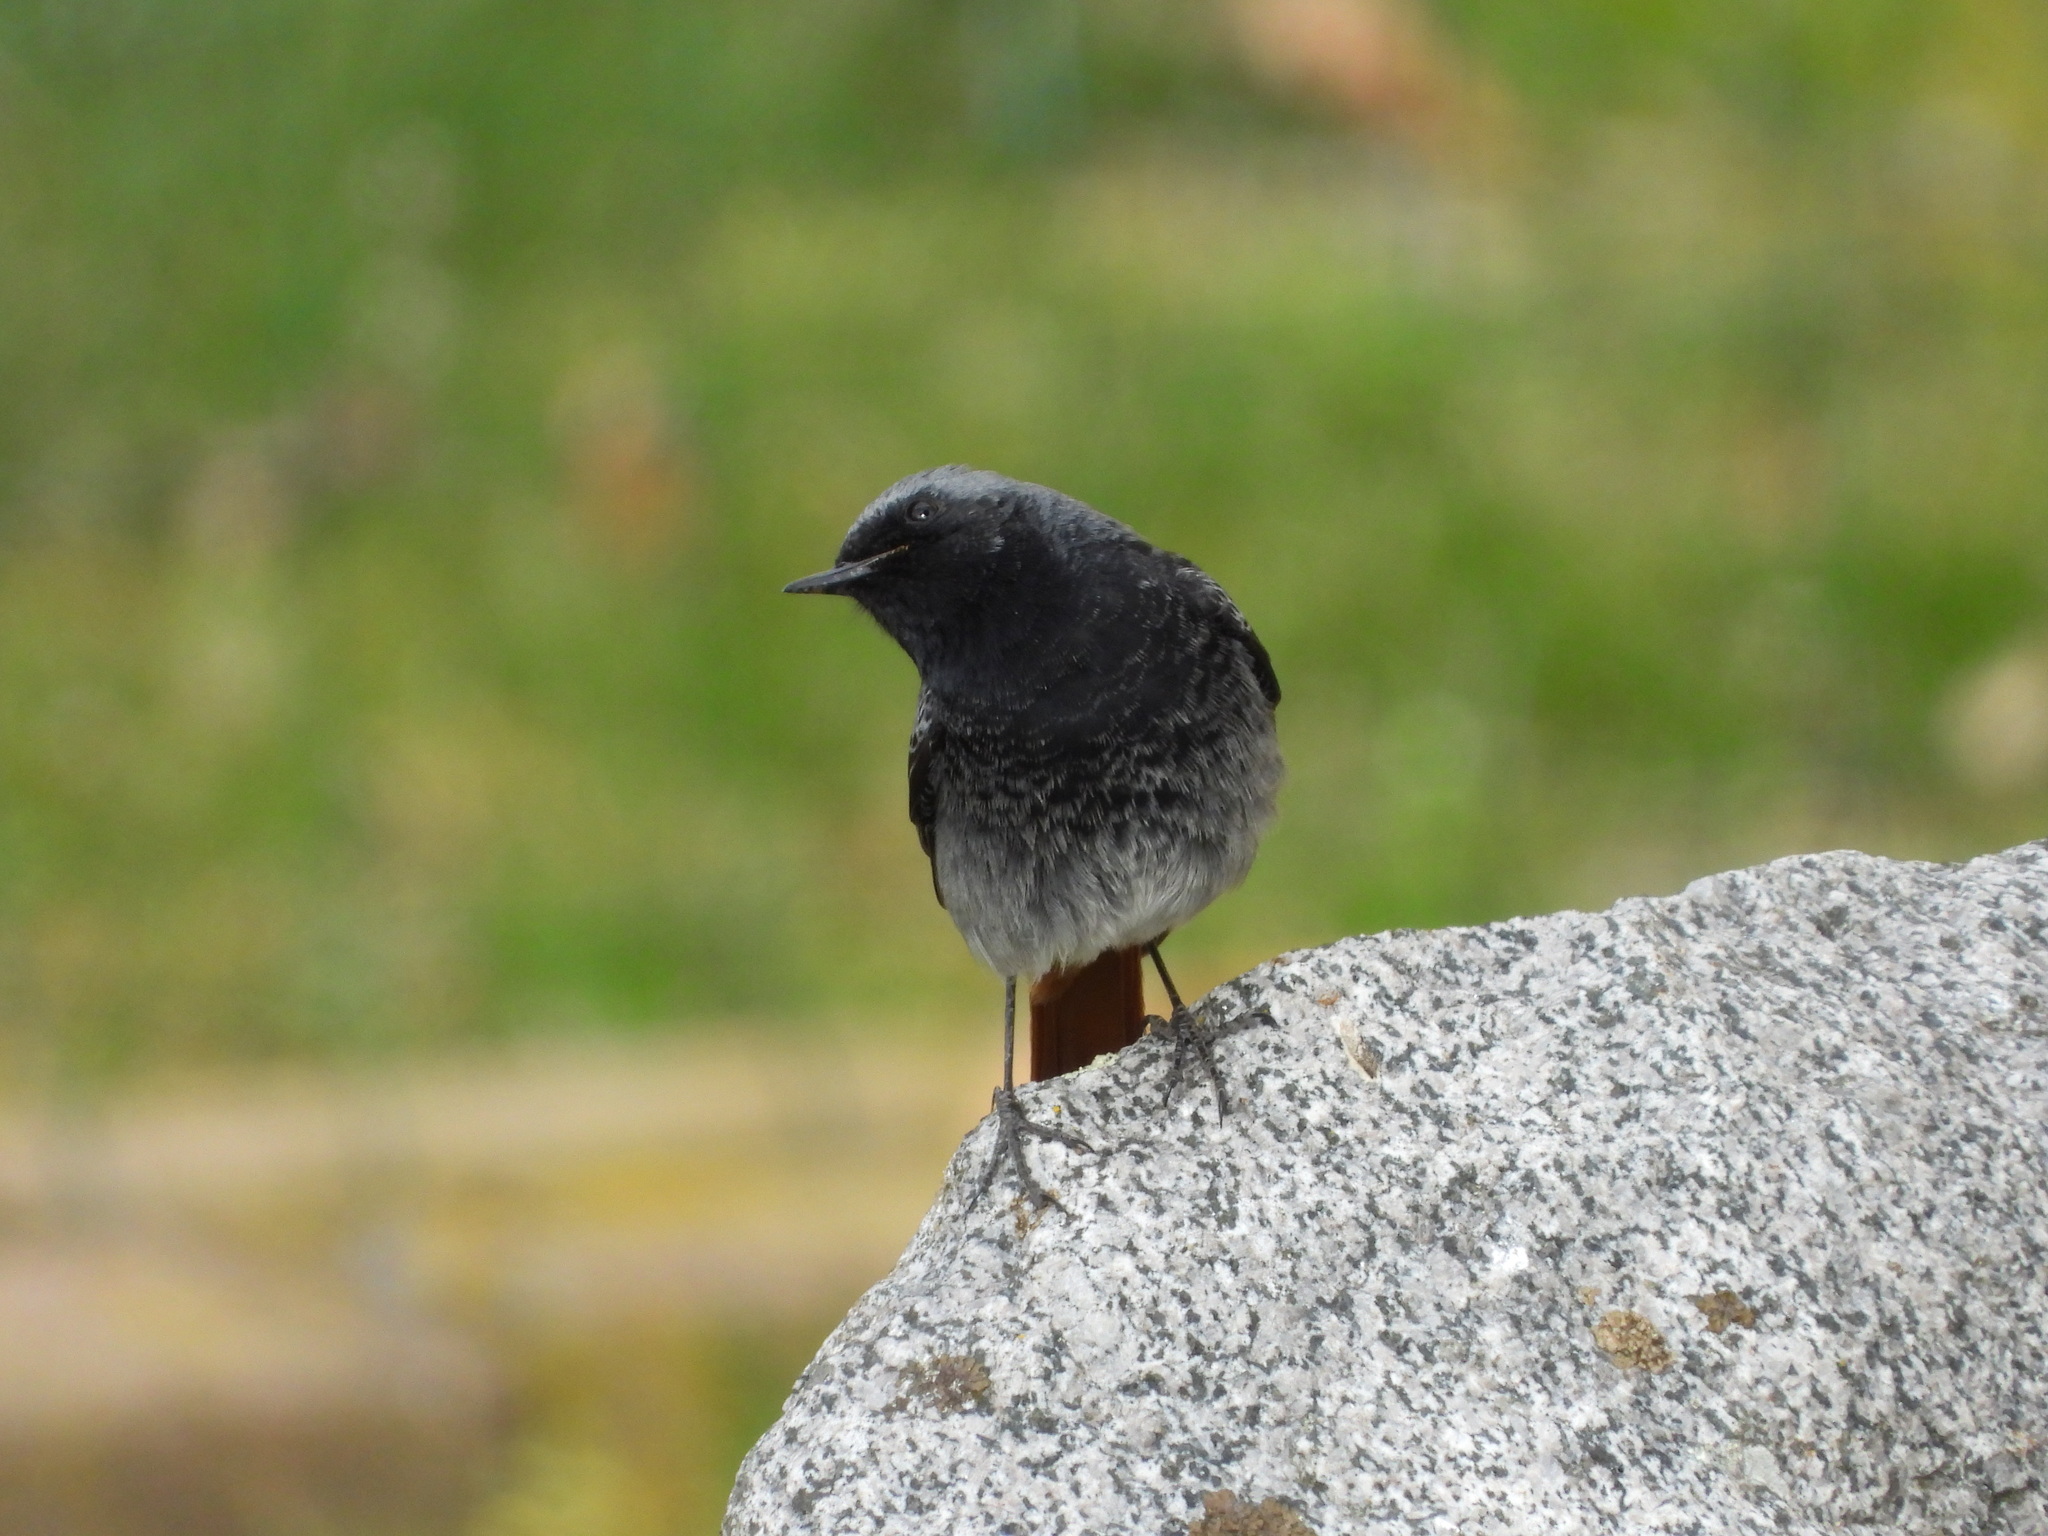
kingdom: Animalia
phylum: Chordata
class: Aves
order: Passeriformes
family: Muscicapidae
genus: Phoenicurus
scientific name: Phoenicurus ochruros
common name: Black redstart
